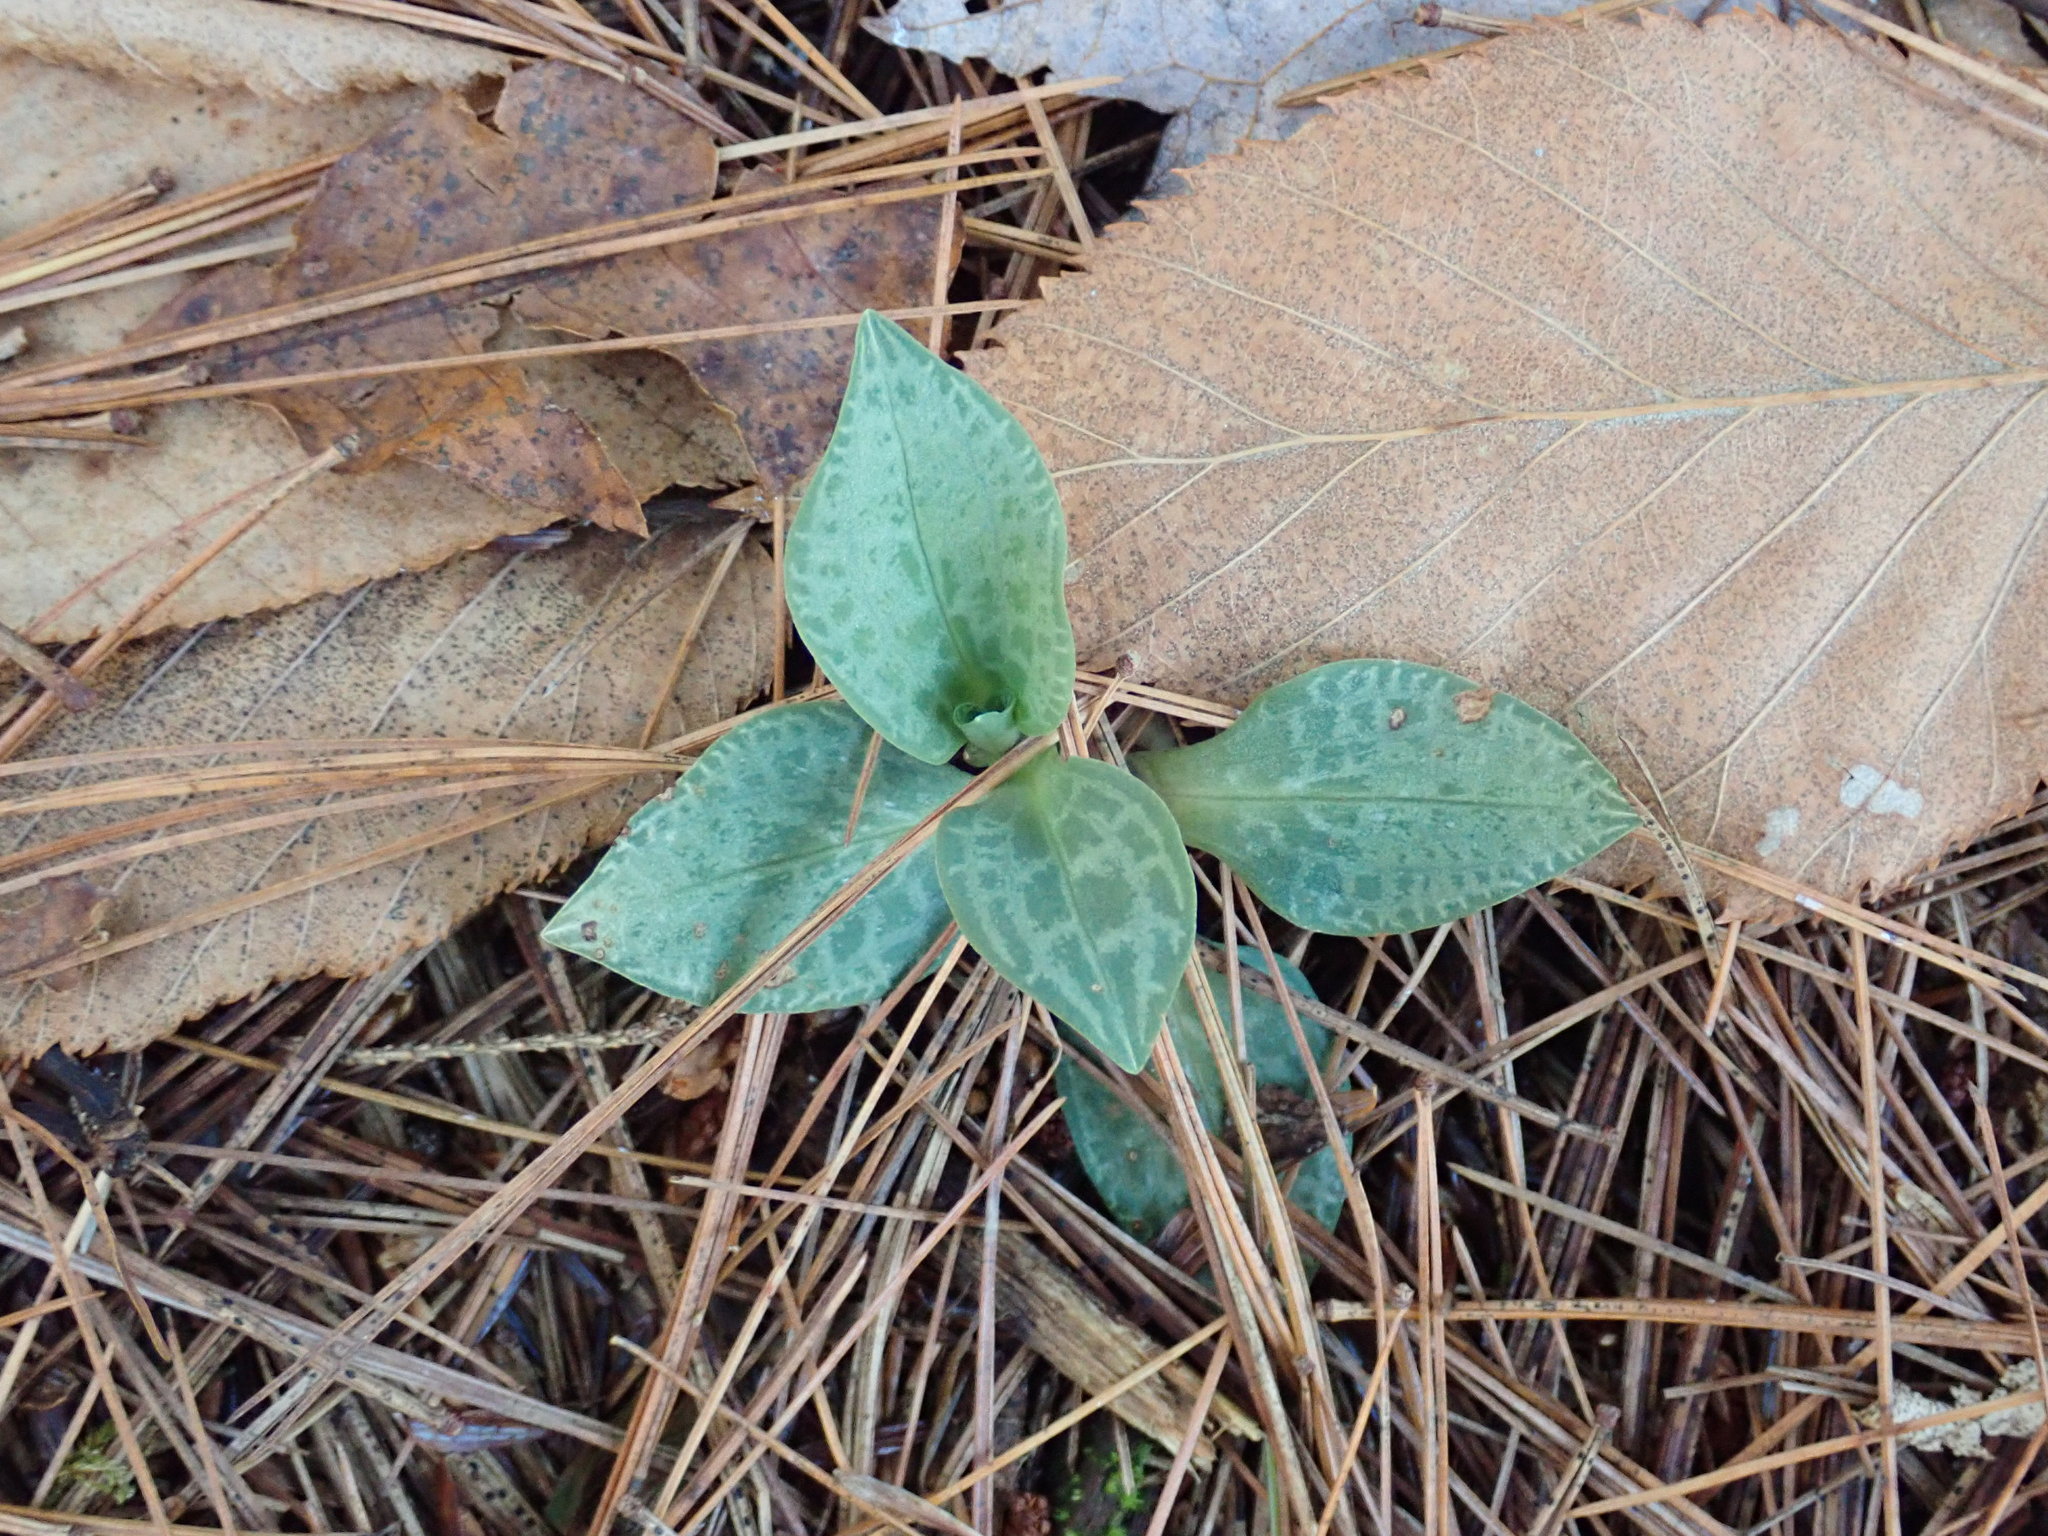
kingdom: Plantae
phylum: Tracheophyta
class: Liliopsida
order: Asparagales
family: Orchidaceae
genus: Goodyera
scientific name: Goodyera tesselata
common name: Checkered rattlesnake-plantain
